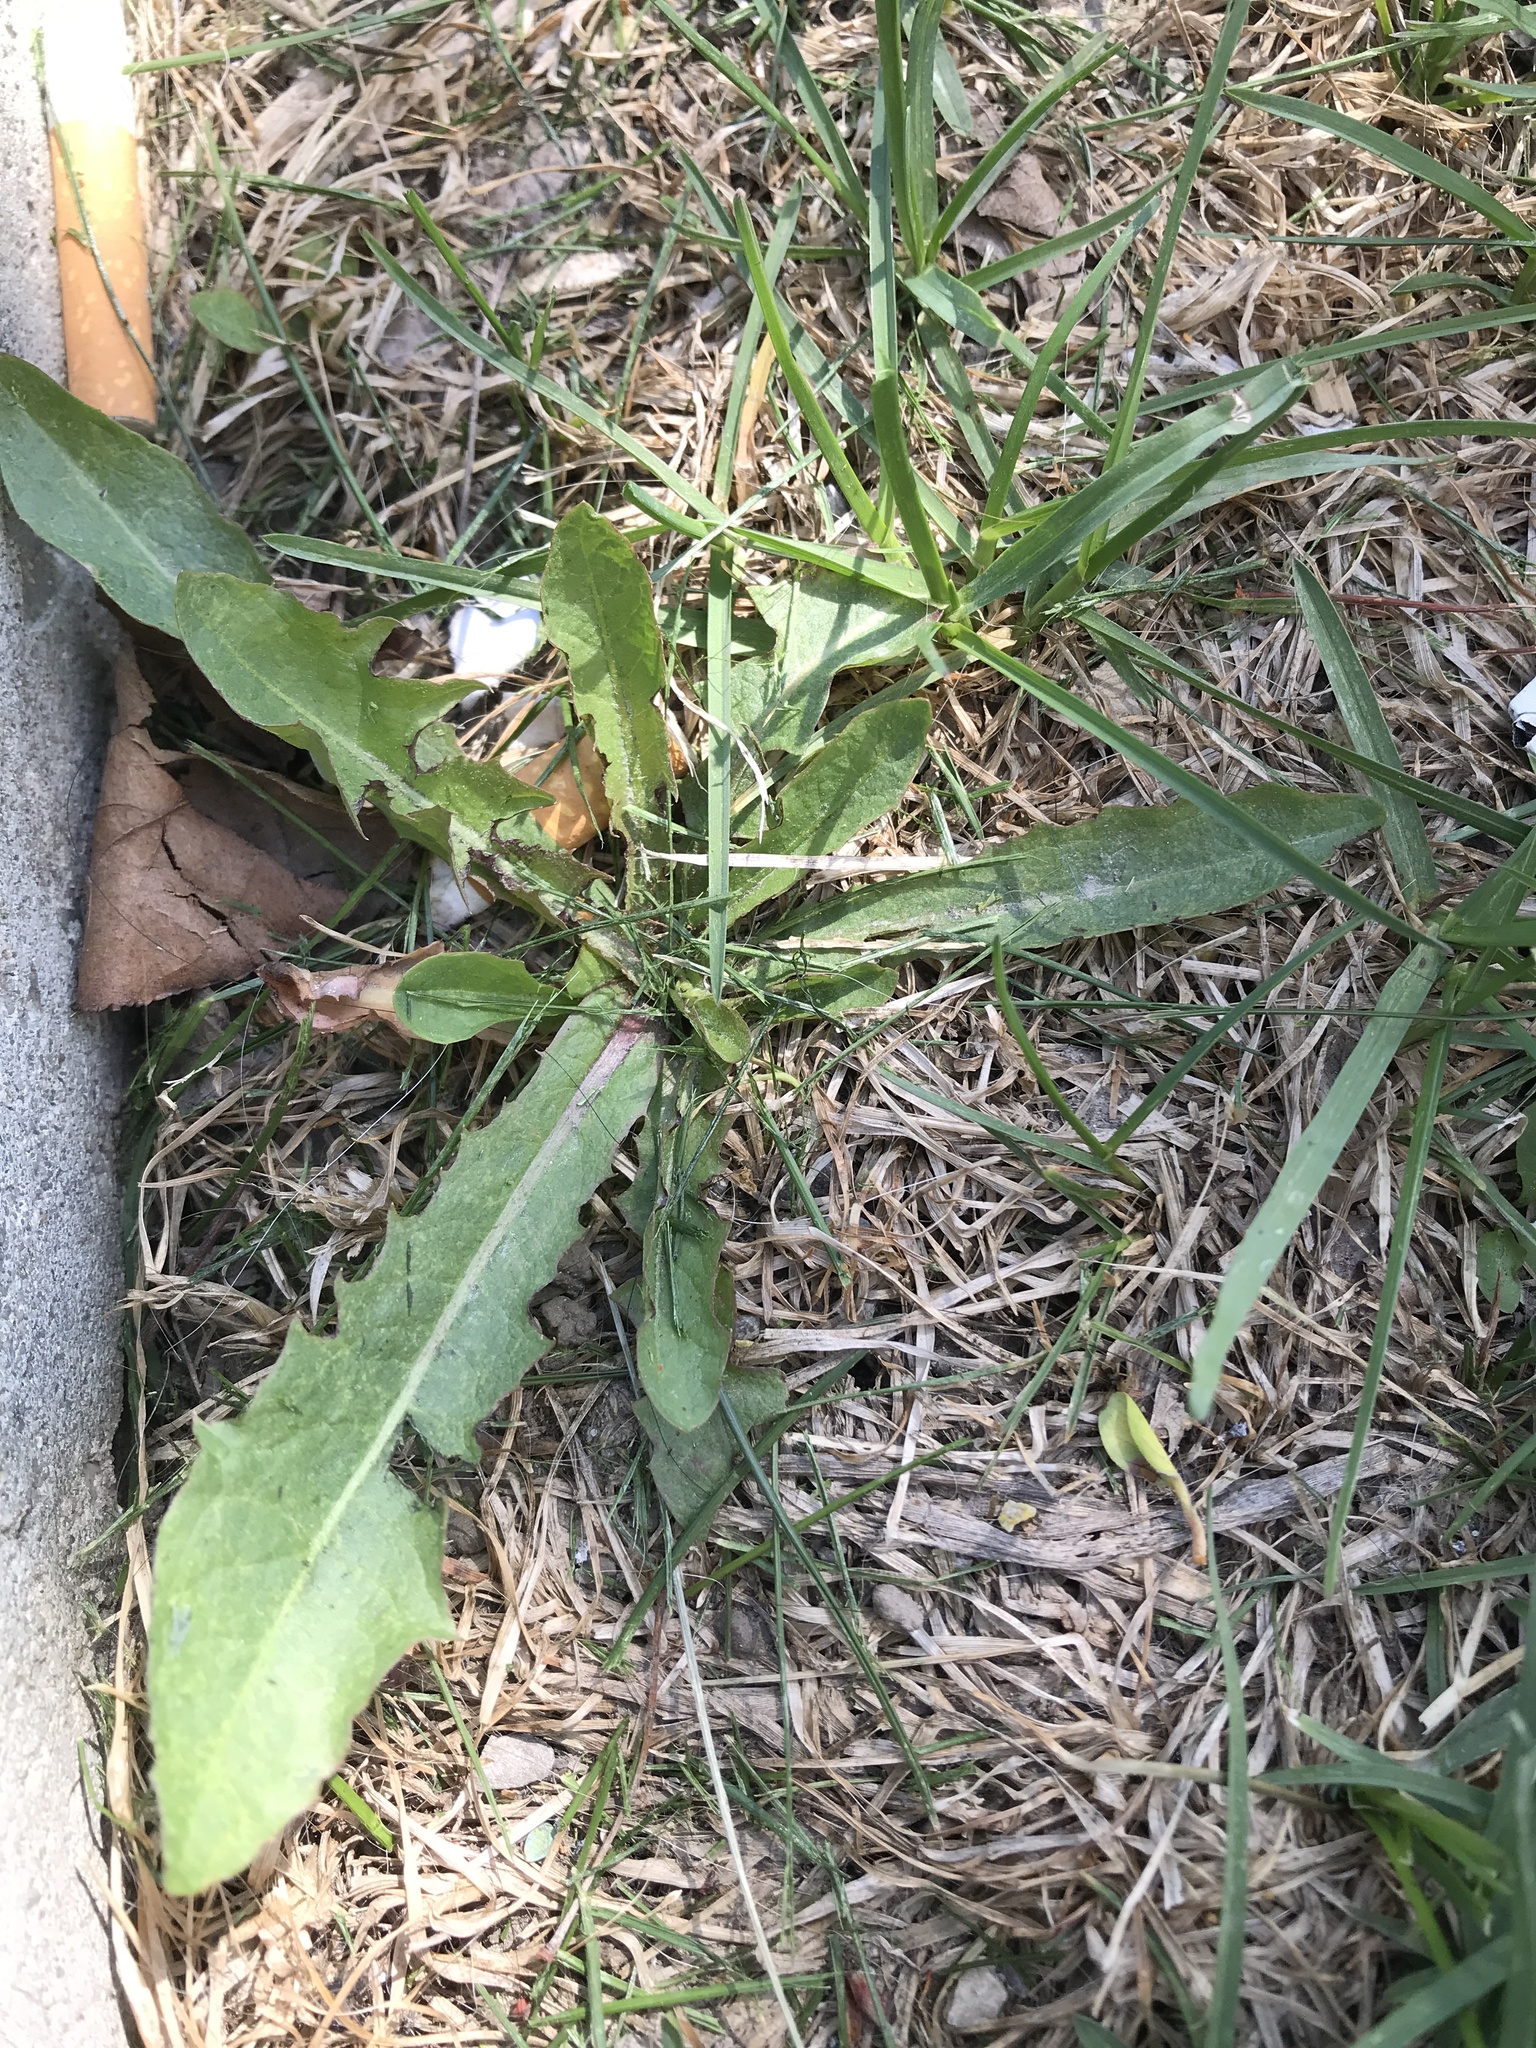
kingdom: Plantae
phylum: Tracheophyta
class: Magnoliopsida
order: Asterales
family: Asteraceae
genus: Taraxacum
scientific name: Taraxacum officinale
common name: Common dandelion
